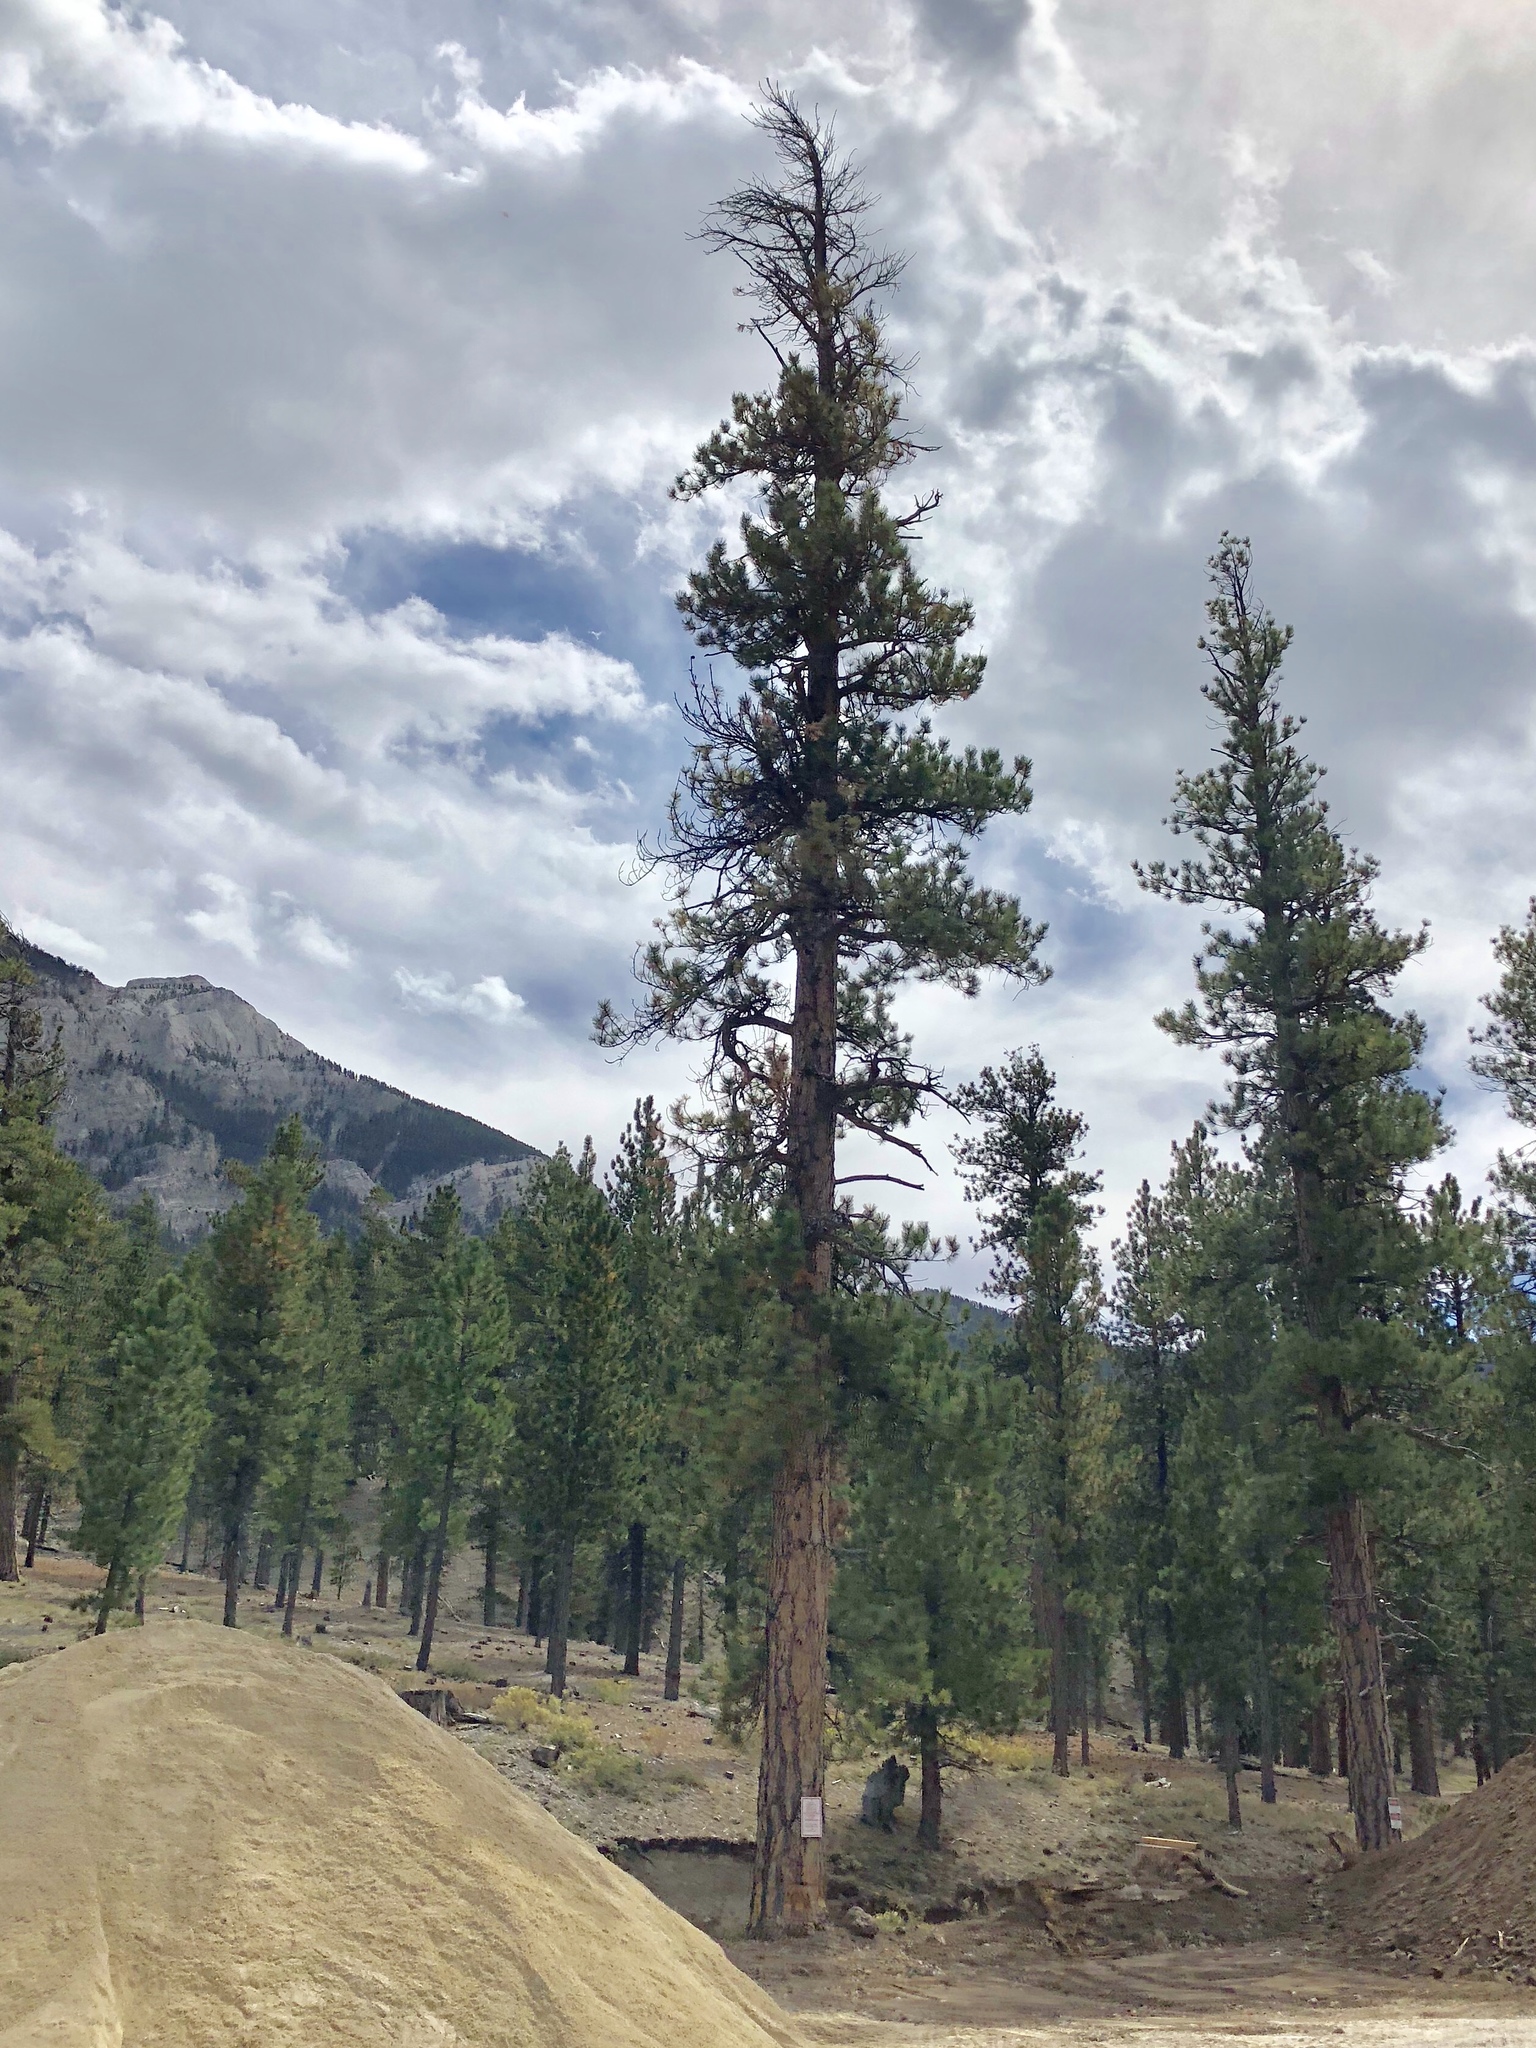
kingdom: Plantae
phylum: Tracheophyta
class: Pinopsida
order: Pinales
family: Pinaceae
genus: Pinus
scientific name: Pinus ponderosa
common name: Western yellow-pine
